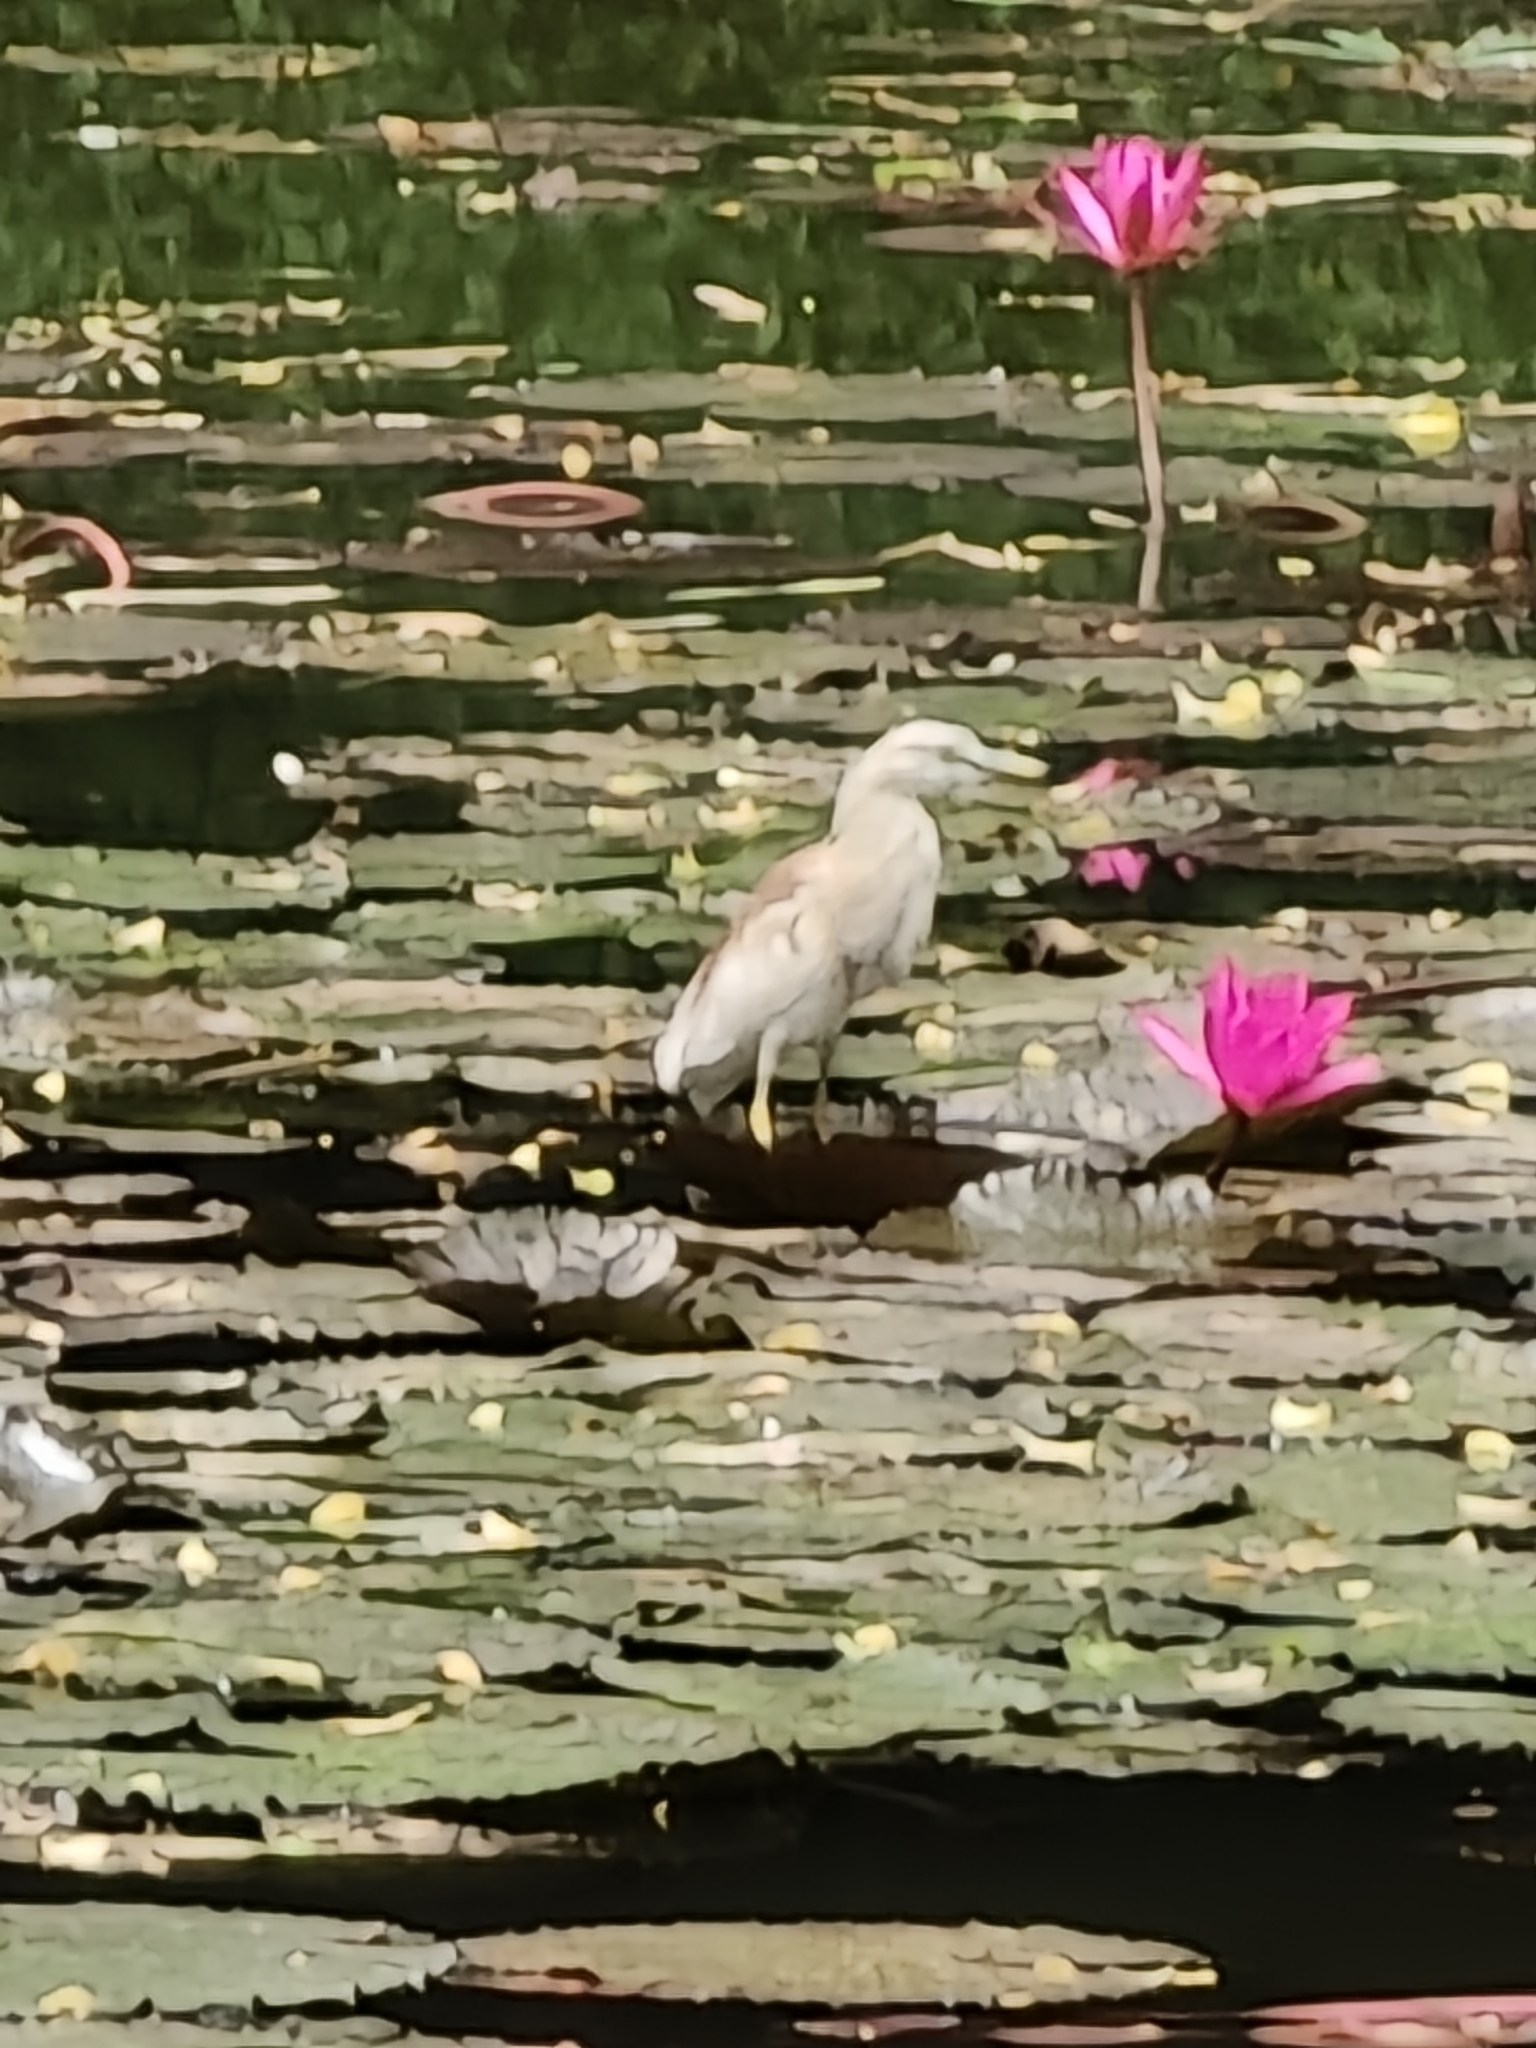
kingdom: Animalia
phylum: Chordata
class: Aves
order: Pelecaniformes
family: Ardeidae
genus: Ardeola
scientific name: Ardeola grayii
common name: Indian pond heron
